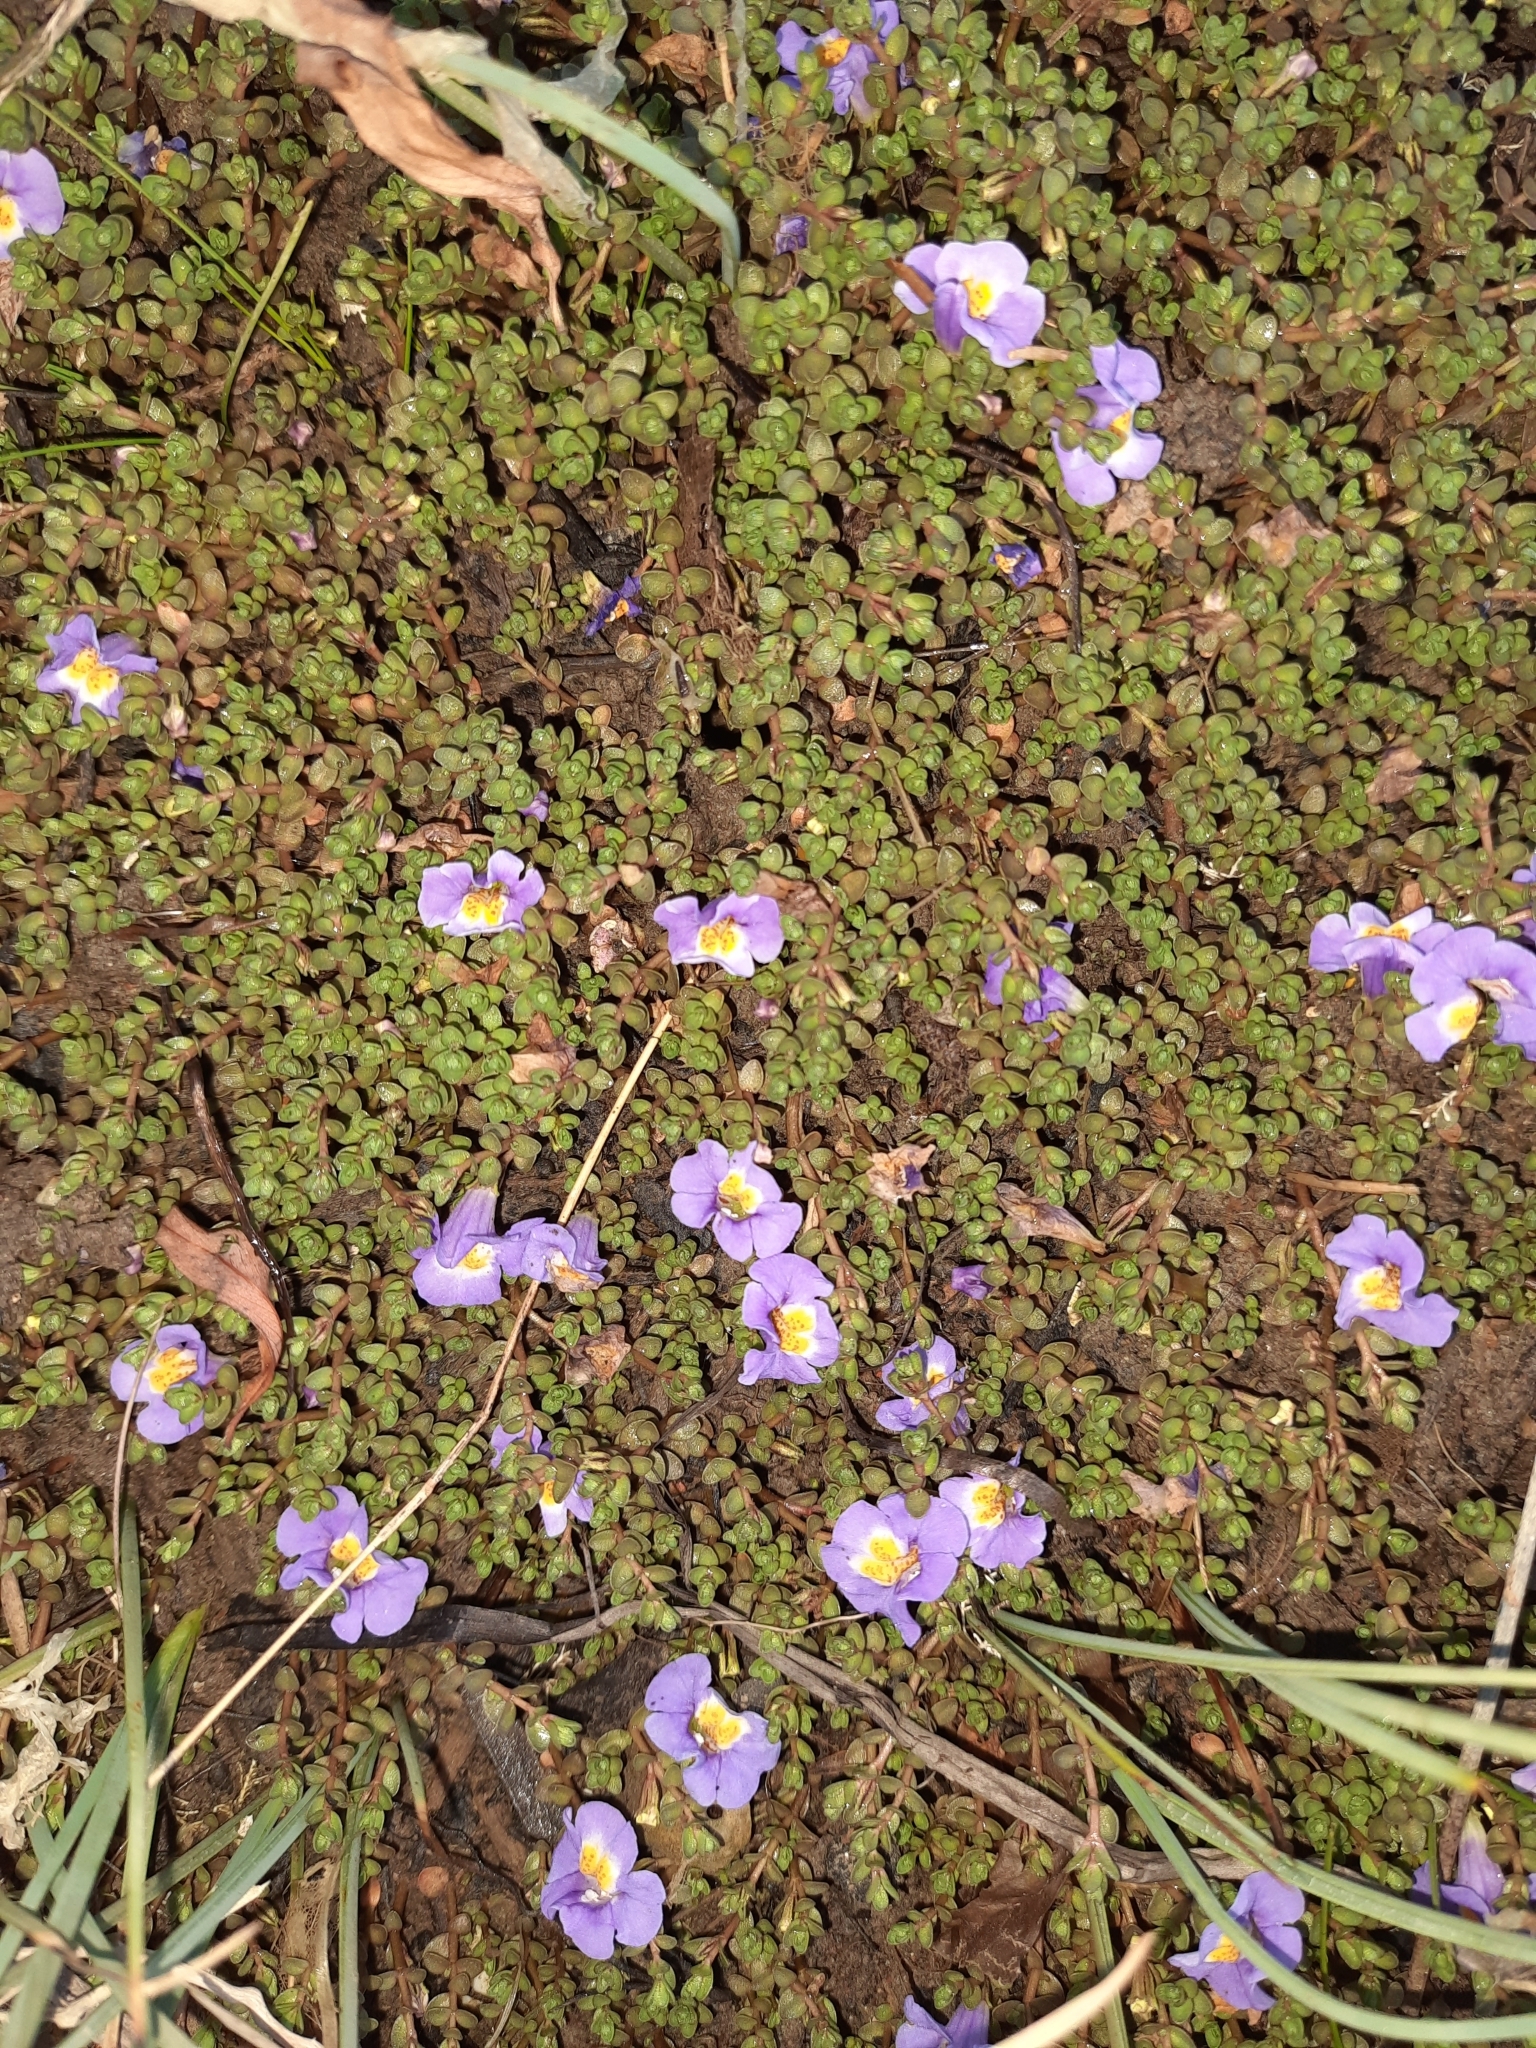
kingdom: Plantae
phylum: Tracheophyta
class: Magnoliopsida
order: Lamiales
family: Phrymaceae
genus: Thyridia
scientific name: Thyridia repens
